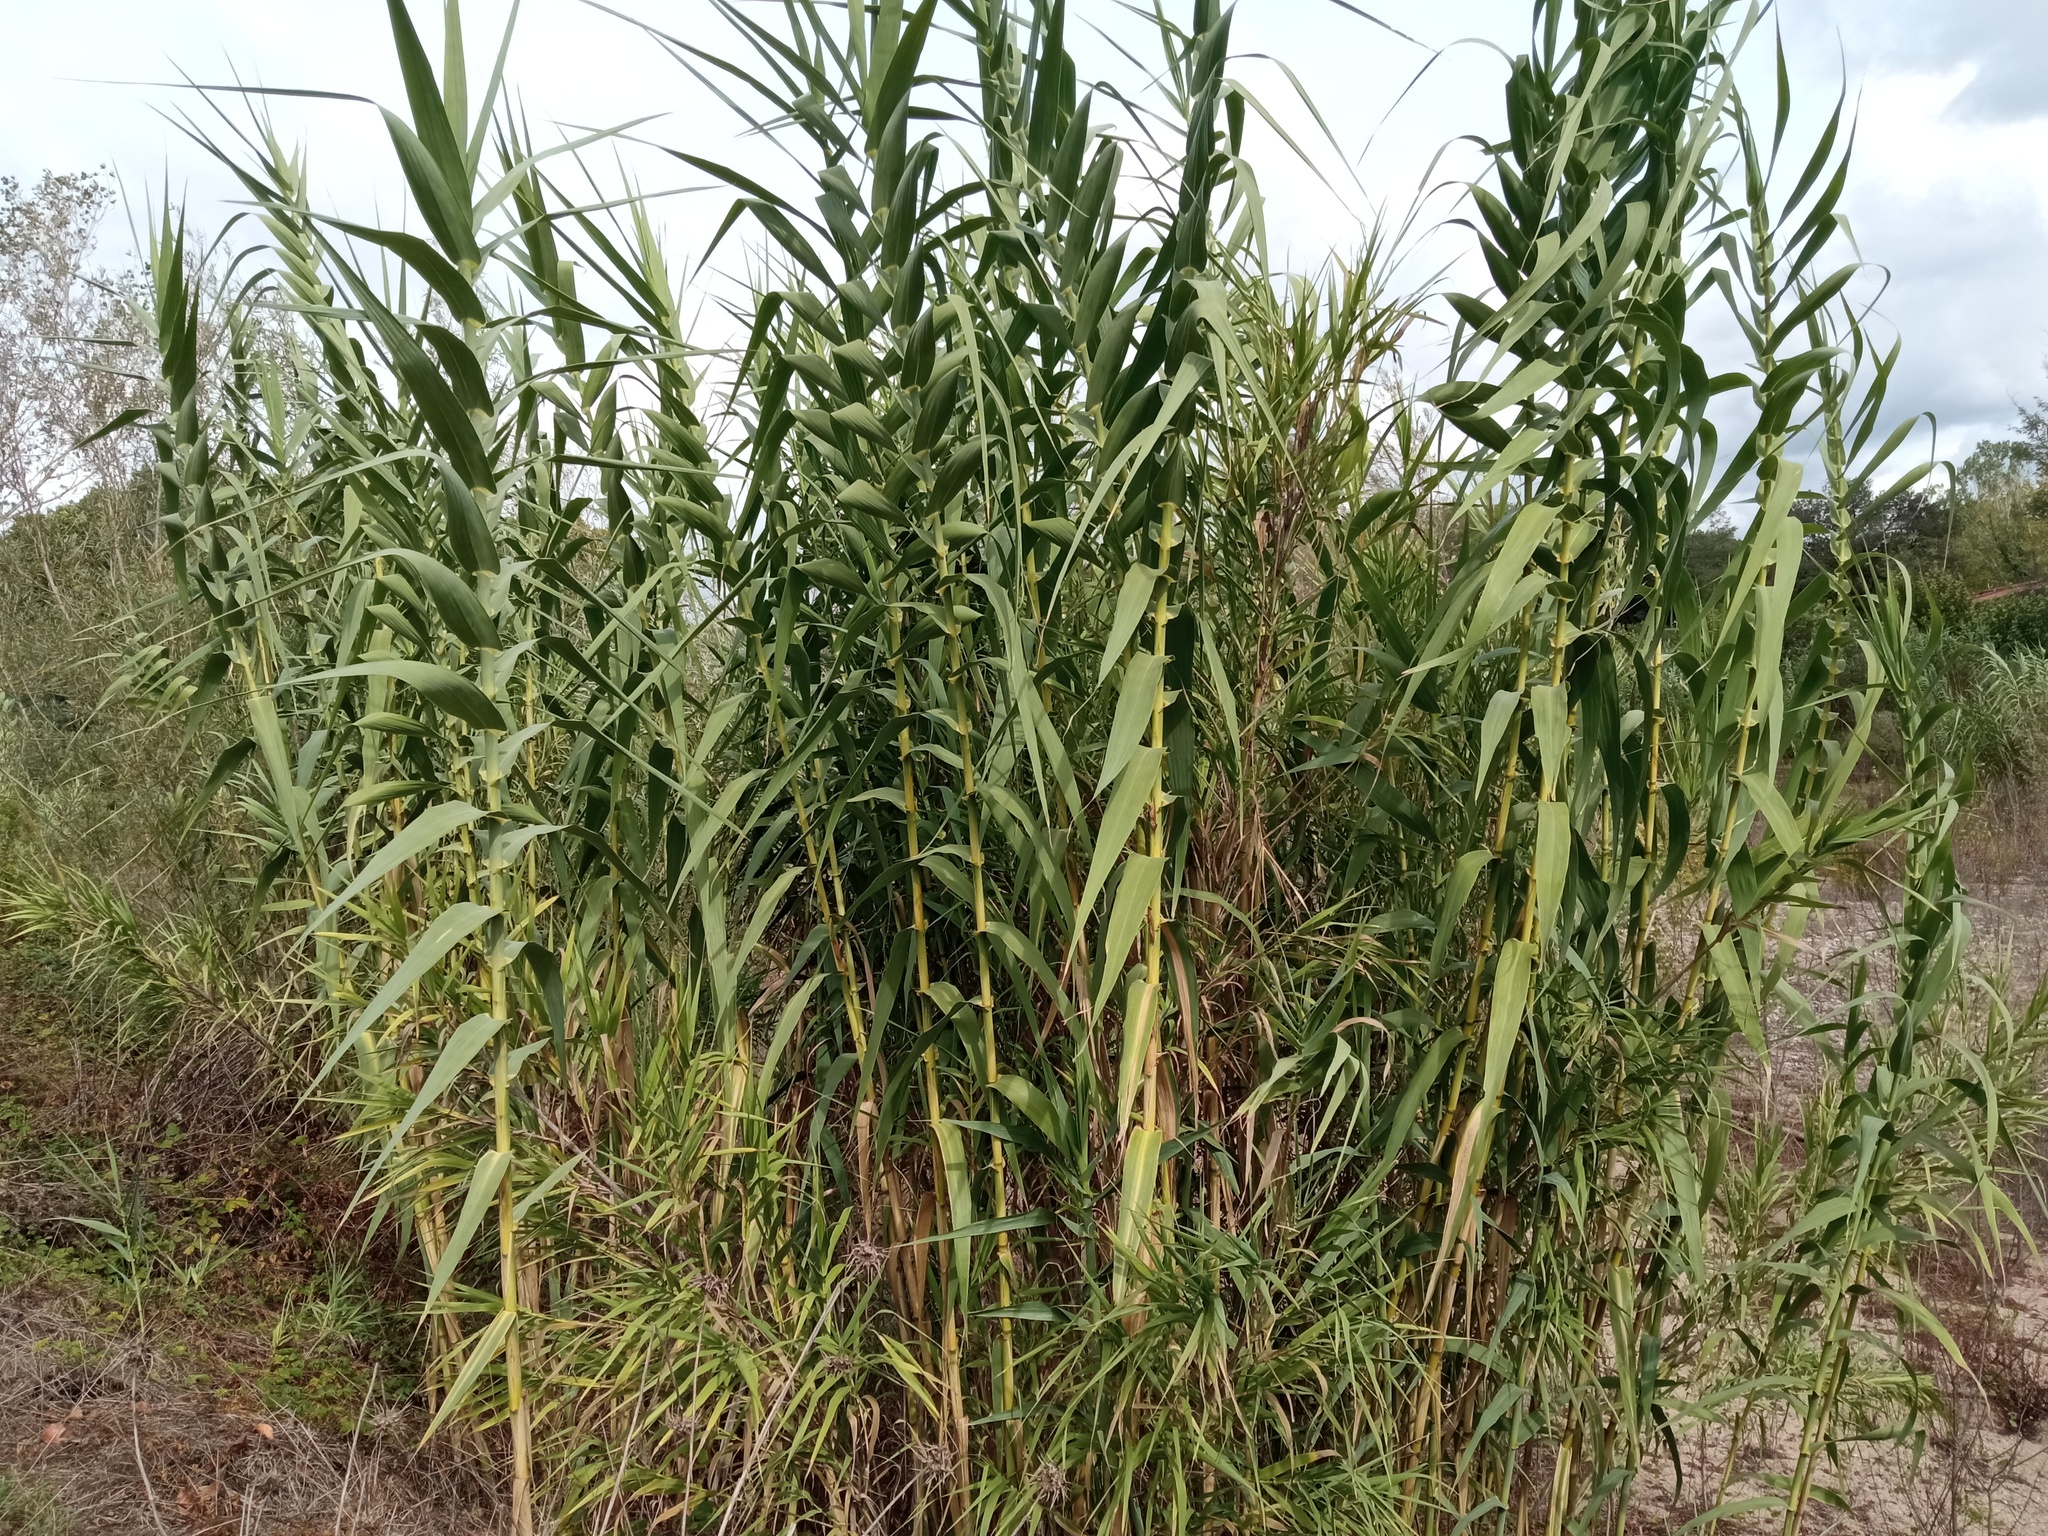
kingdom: Plantae
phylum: Tracheophyta
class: Liliopsida
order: Poales
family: Poaceae
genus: Arundo
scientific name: Arundo donax
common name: Giant reed
